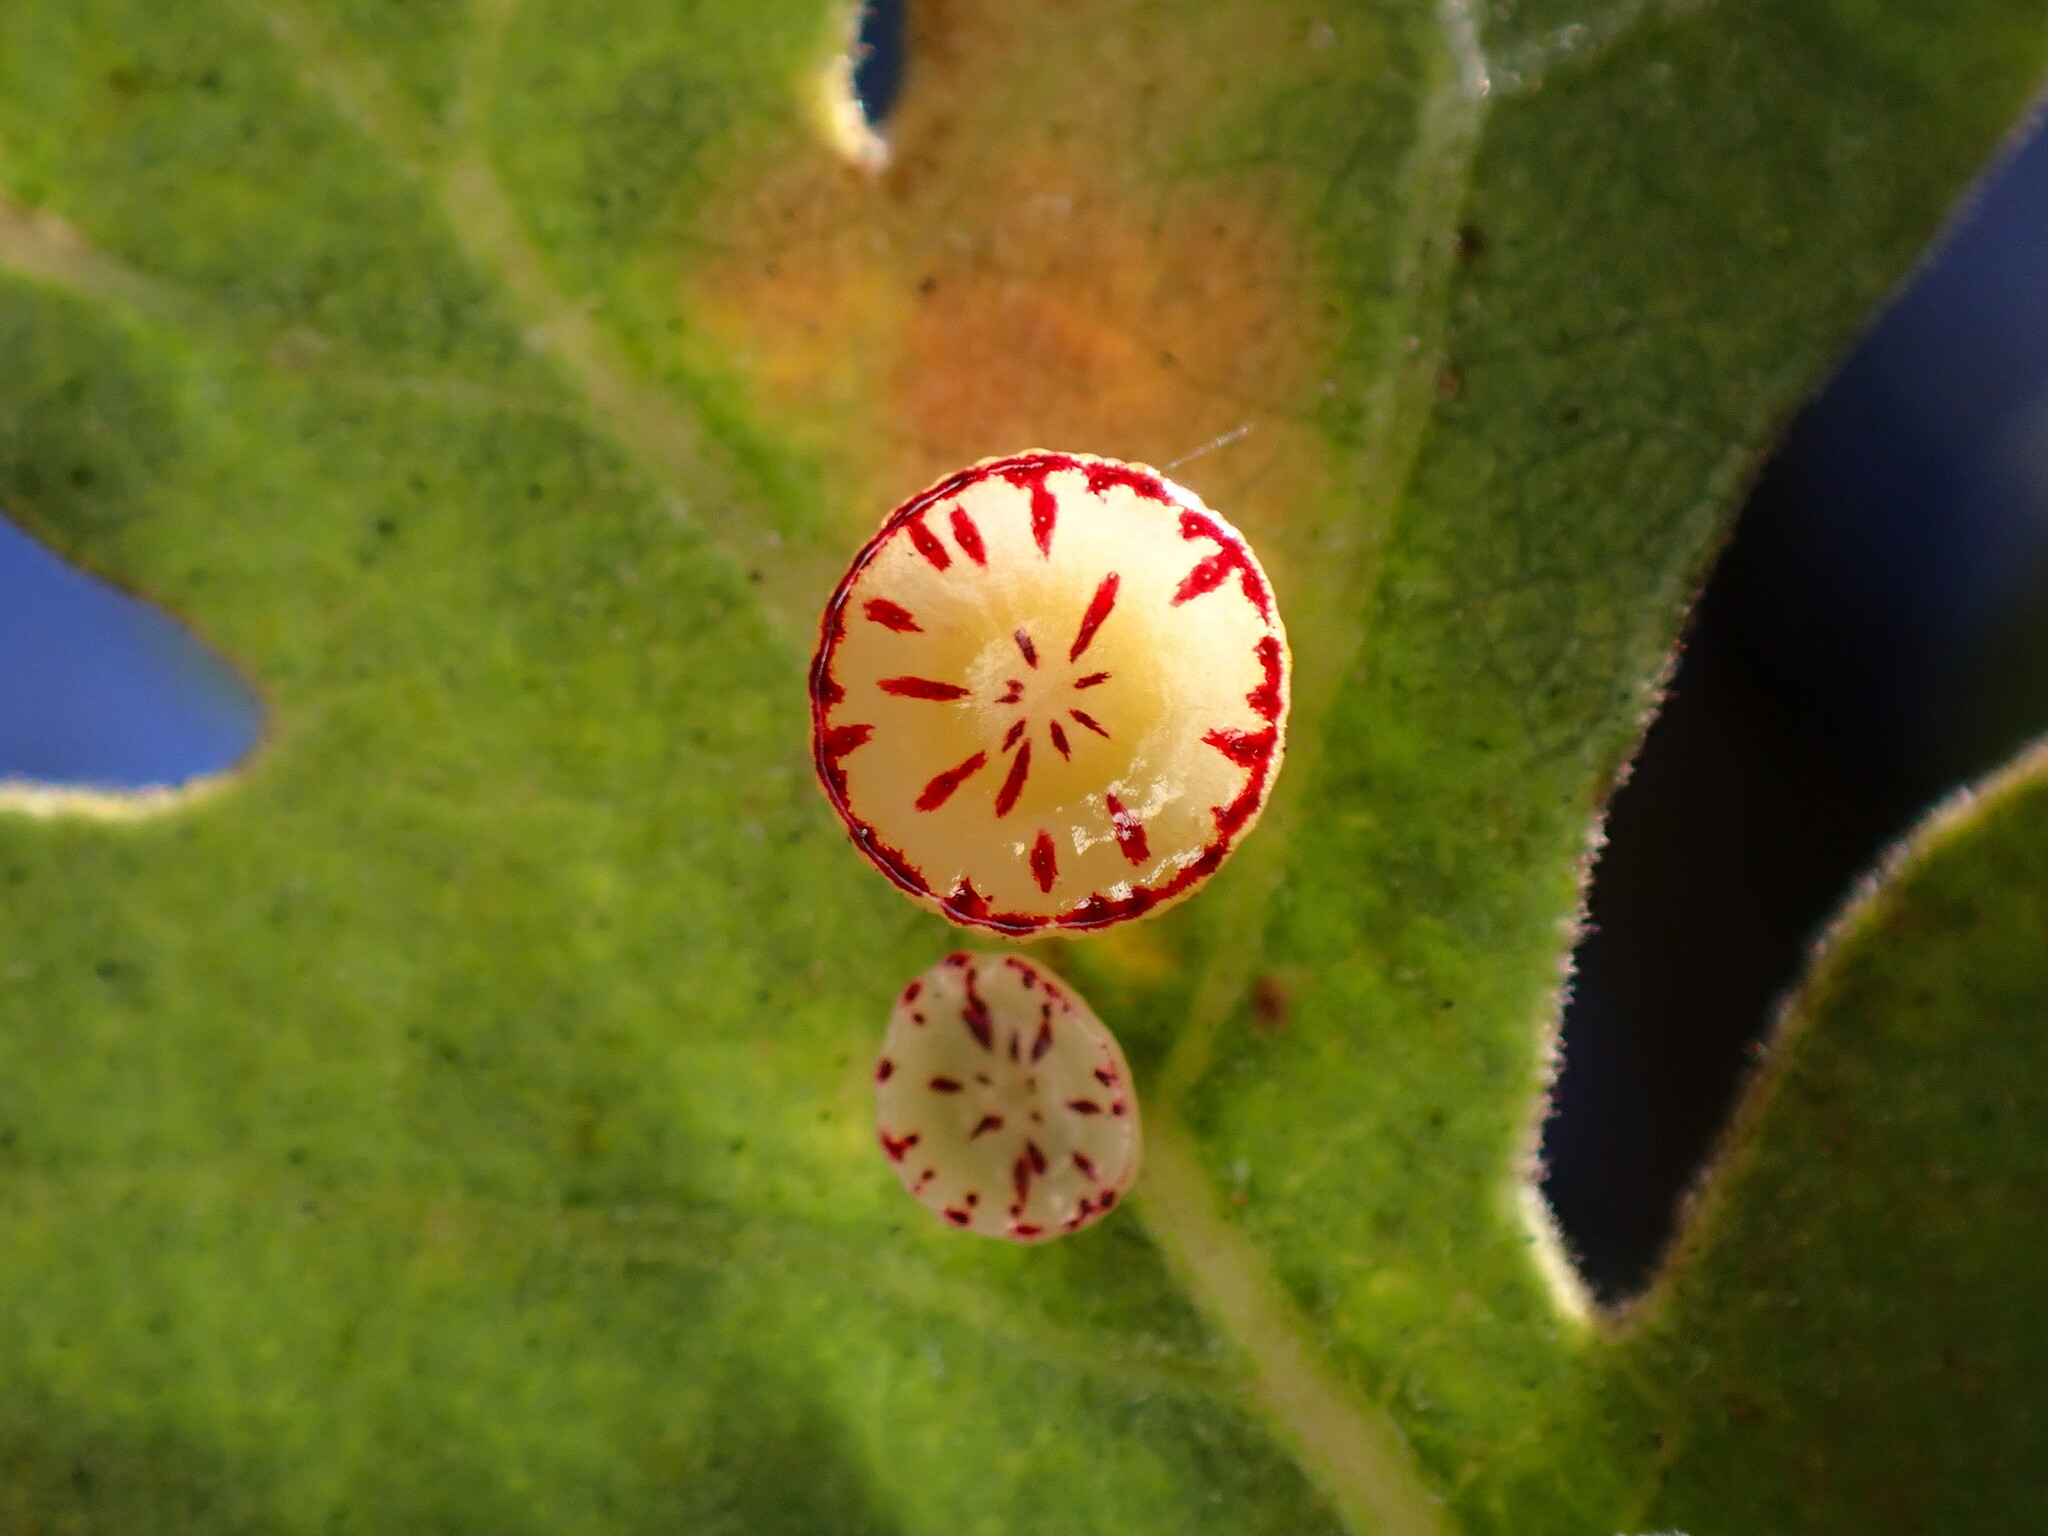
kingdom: Animalia
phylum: Arthropoda
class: Insecta
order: Hymenoptera
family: Cynipidae
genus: Andricus
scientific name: Andricus
